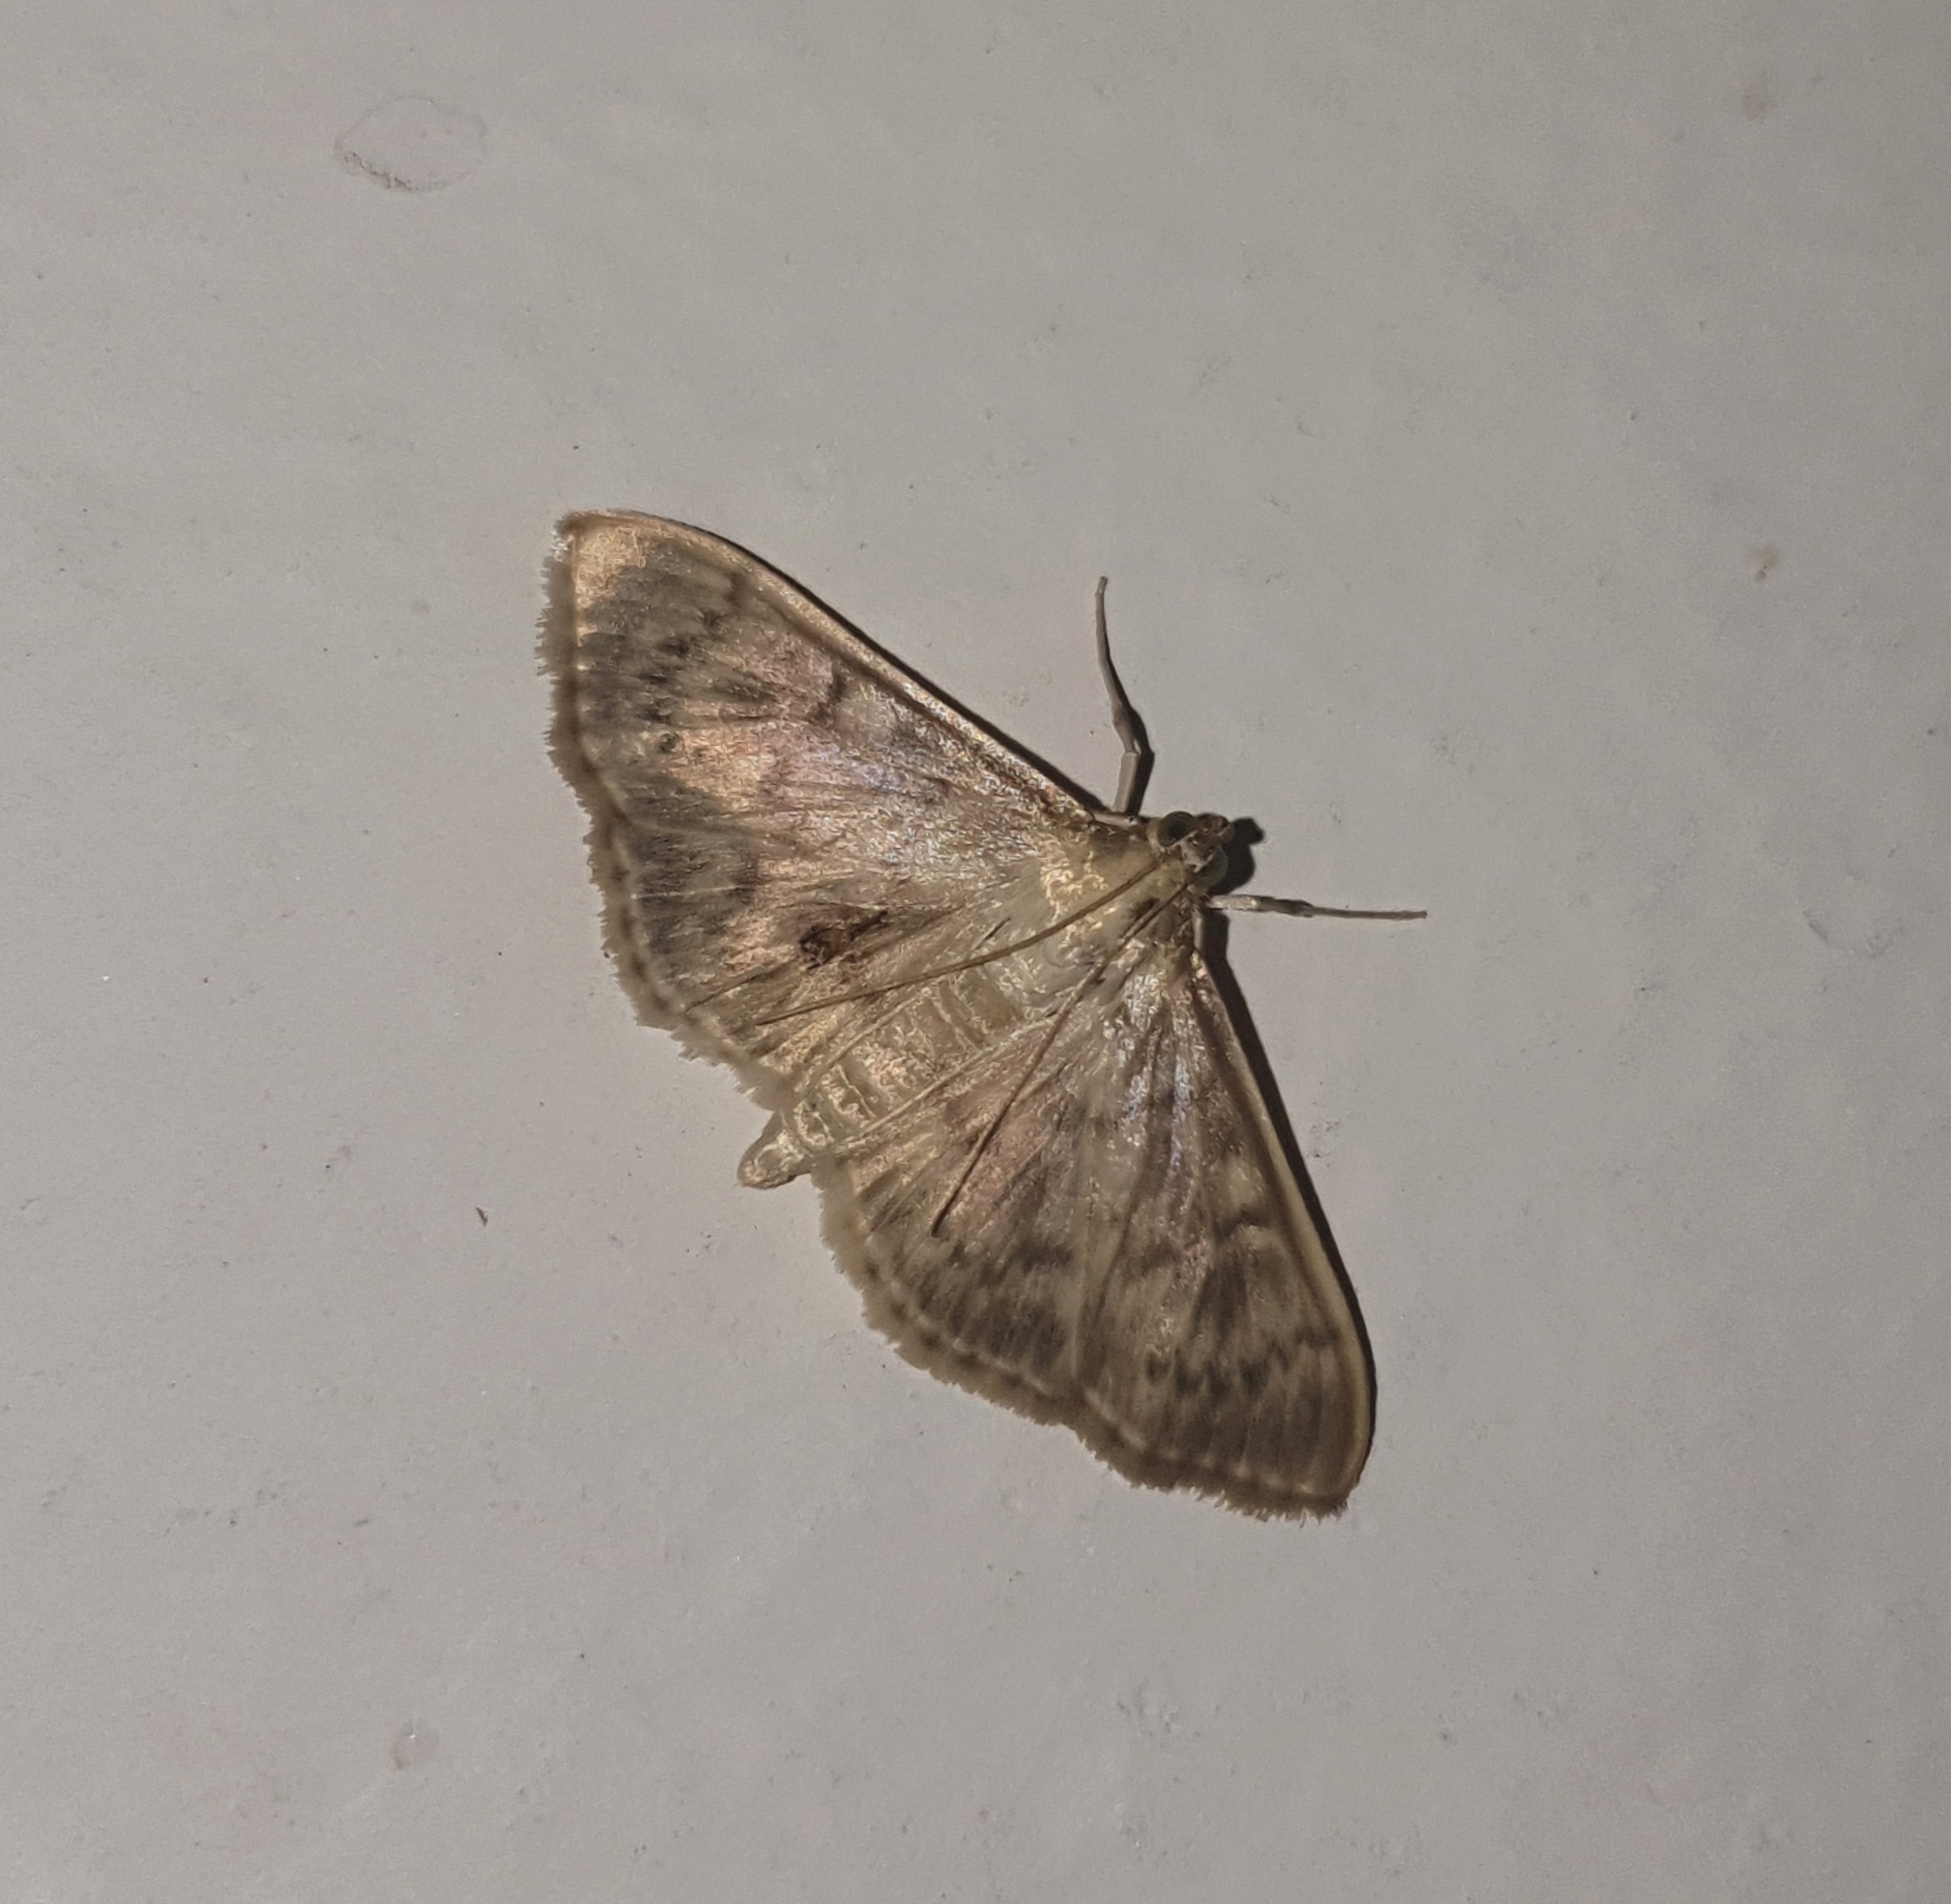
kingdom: Animalia
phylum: Arthropoda
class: Insecta
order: Lepidoptera
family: Crambidae
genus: Patania
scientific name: Patania ruralis
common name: Mother of pearl
